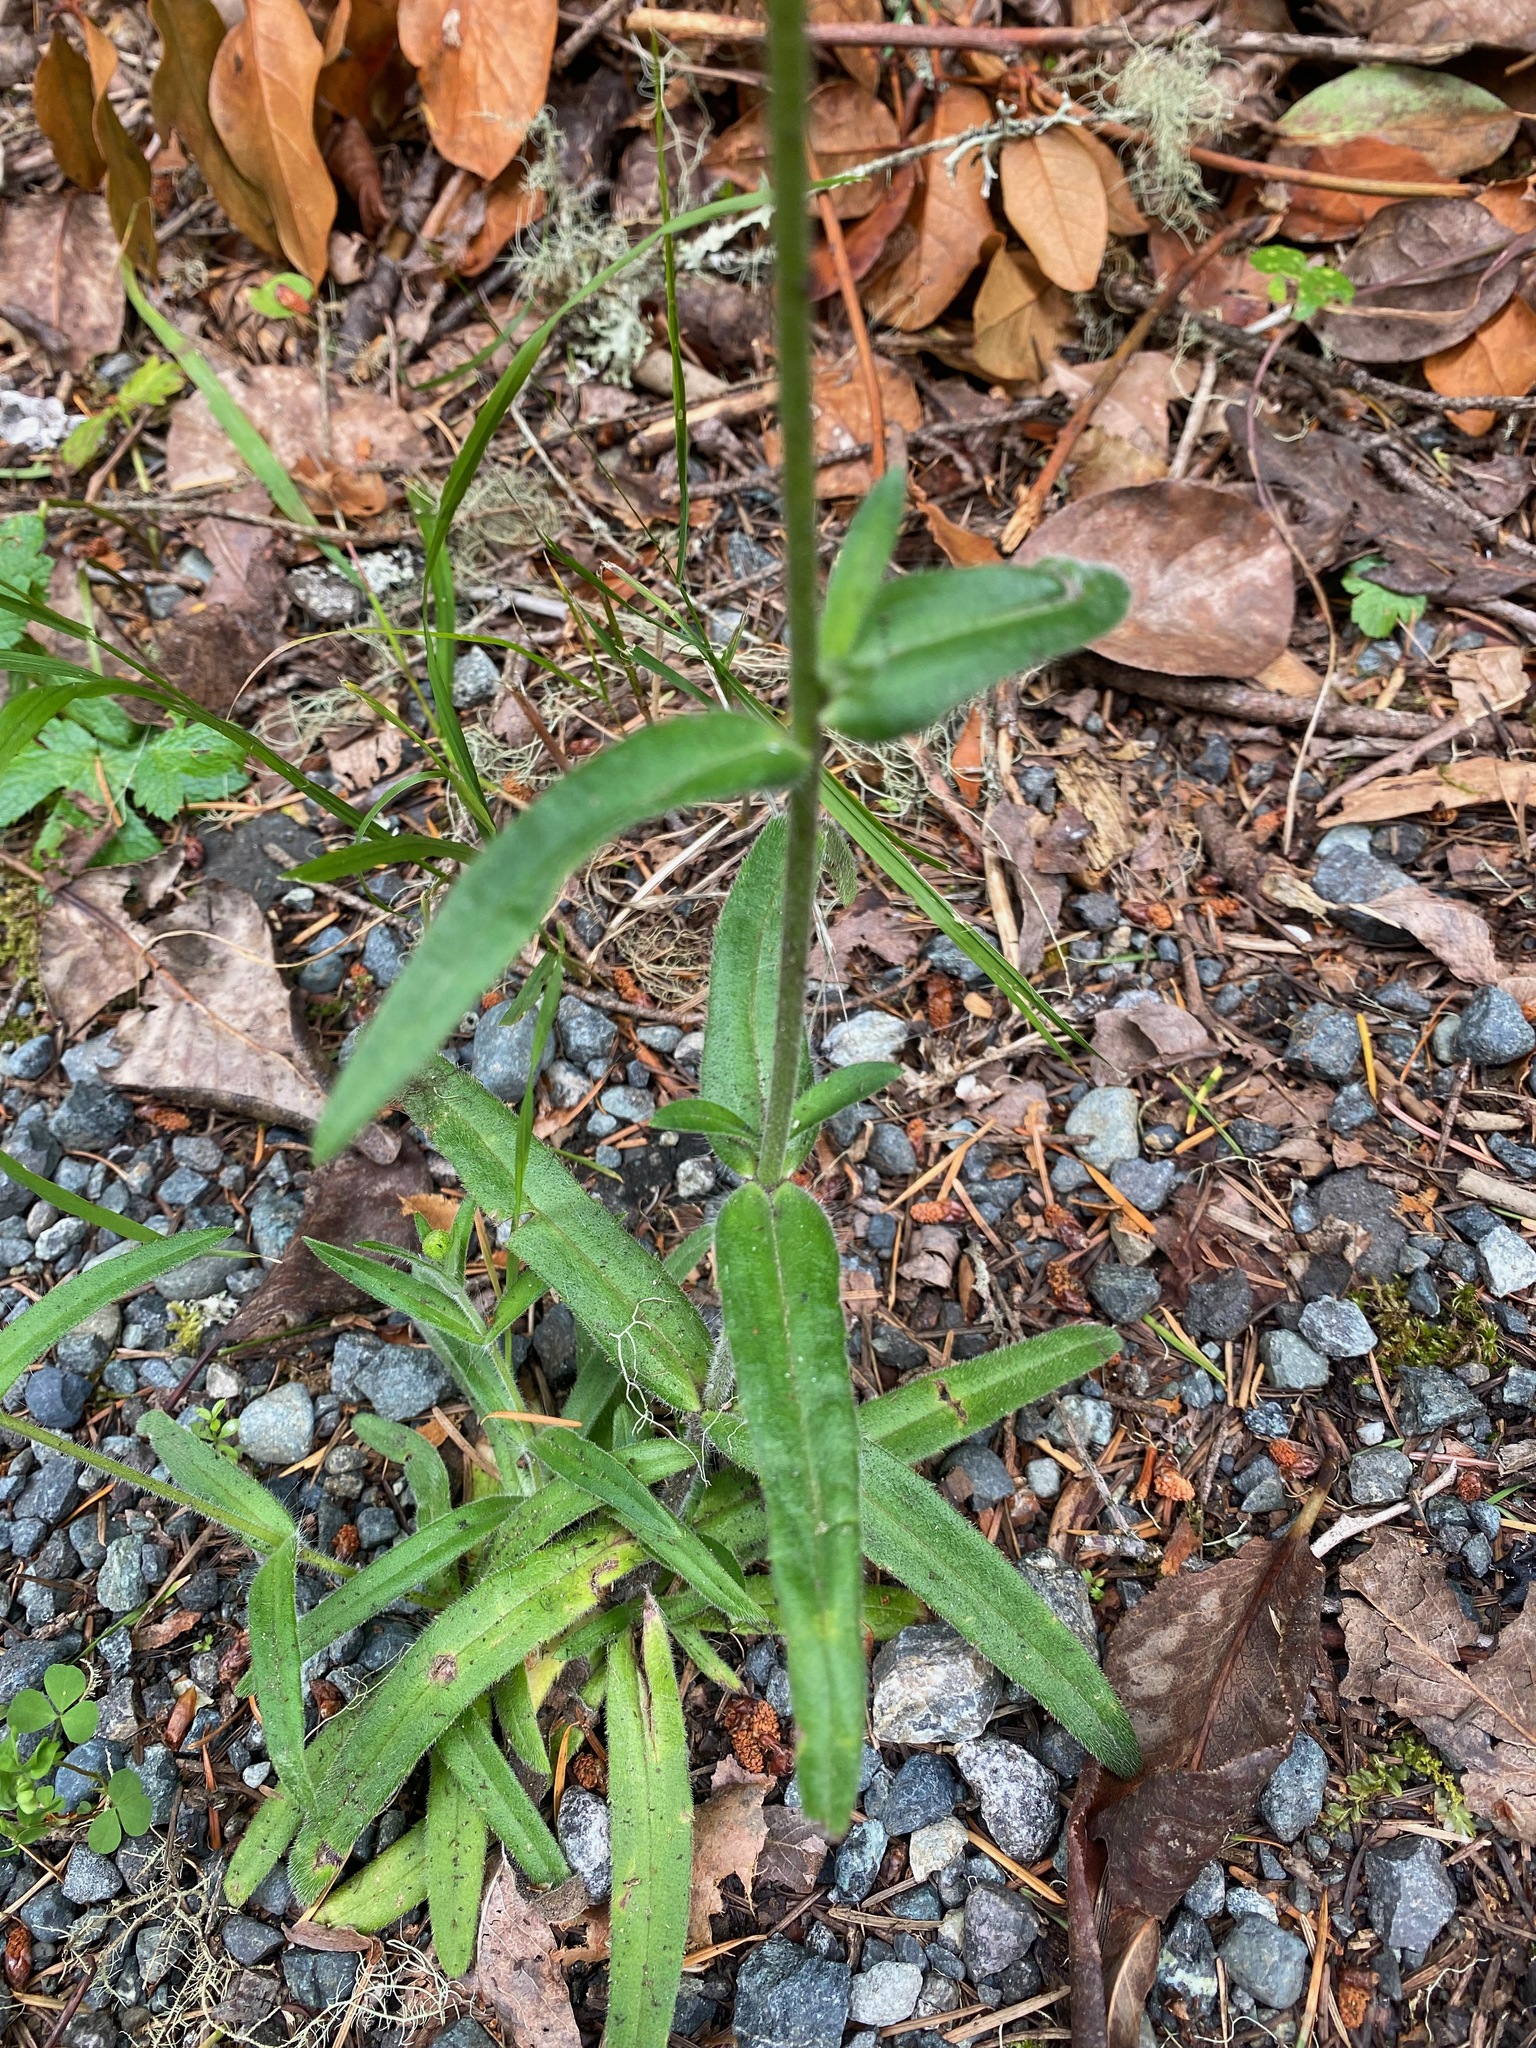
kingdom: Plantae
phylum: Tracheophyta
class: Magnoliopsida
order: Asterales
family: Asteraceae
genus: Anisocarpus
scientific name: Anisocarpus madioides
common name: Woodland madia
